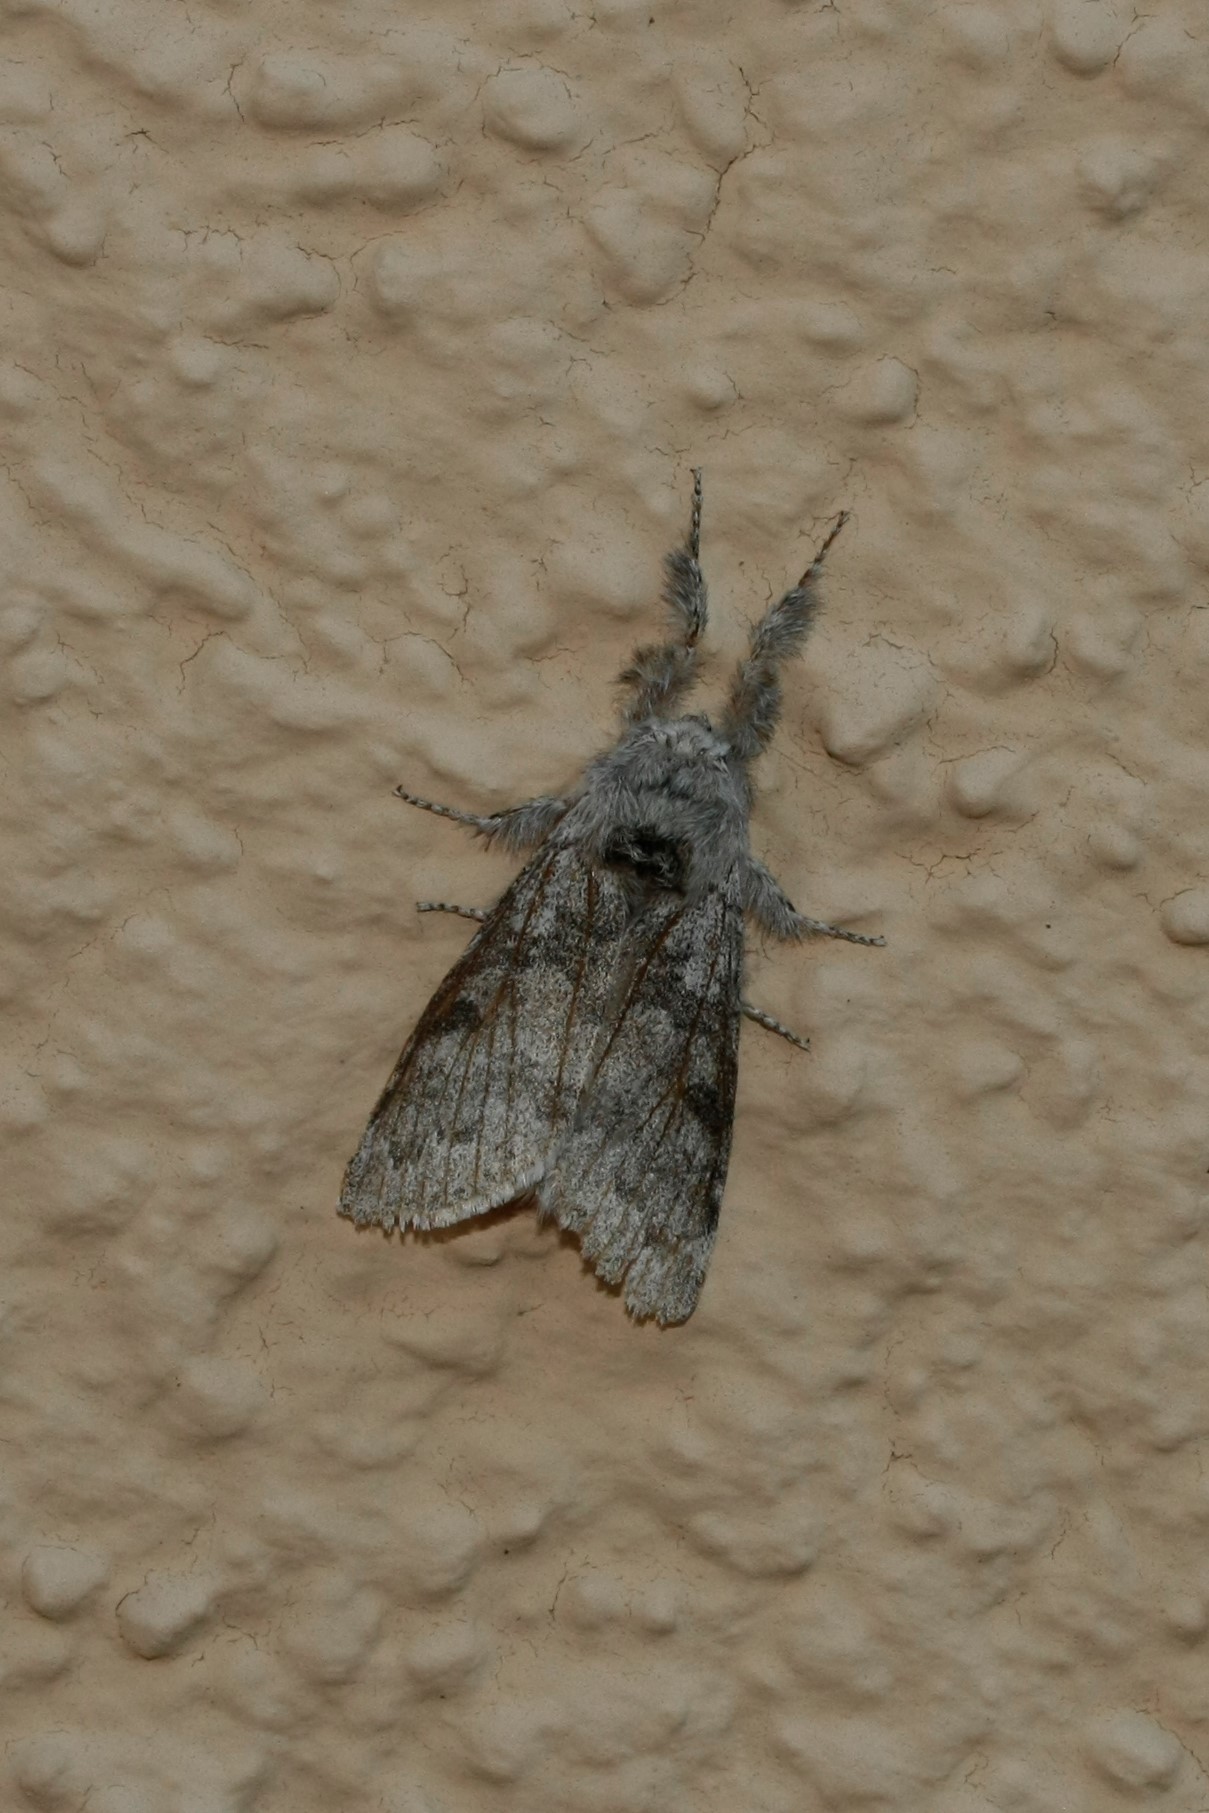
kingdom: Animalia
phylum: Arthropoda
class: Insecta
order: Lepidoptera
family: Erebidae
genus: Calliteara
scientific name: Calliteara pudibunda
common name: Pale tussock
